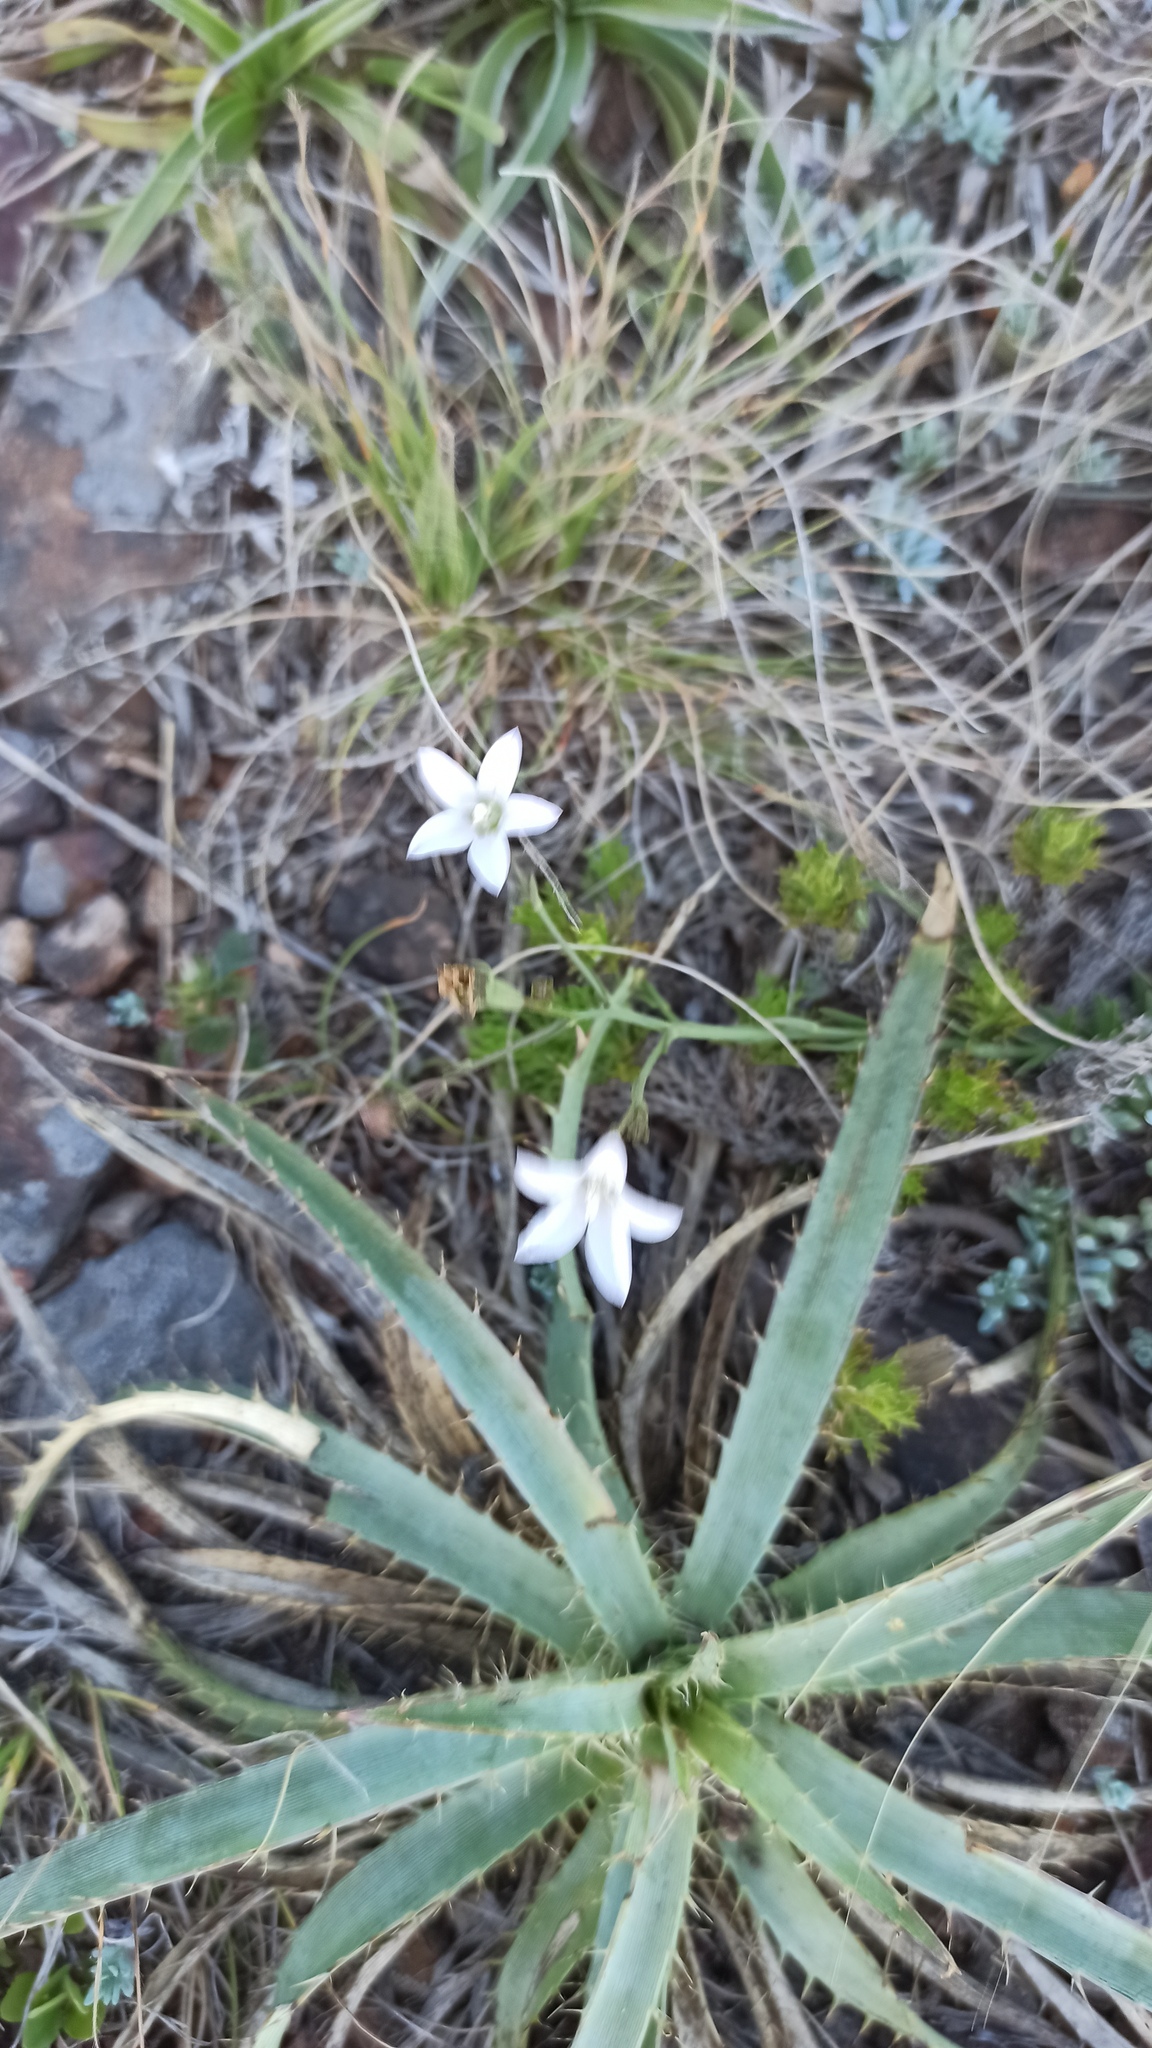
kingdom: Plantae
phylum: Tracheophyta
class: Magnoliopsida
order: Asterales
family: Campanulaceae
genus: Wahlenbergia
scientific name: Wahlenbergia linarioides
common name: Tuffybells
